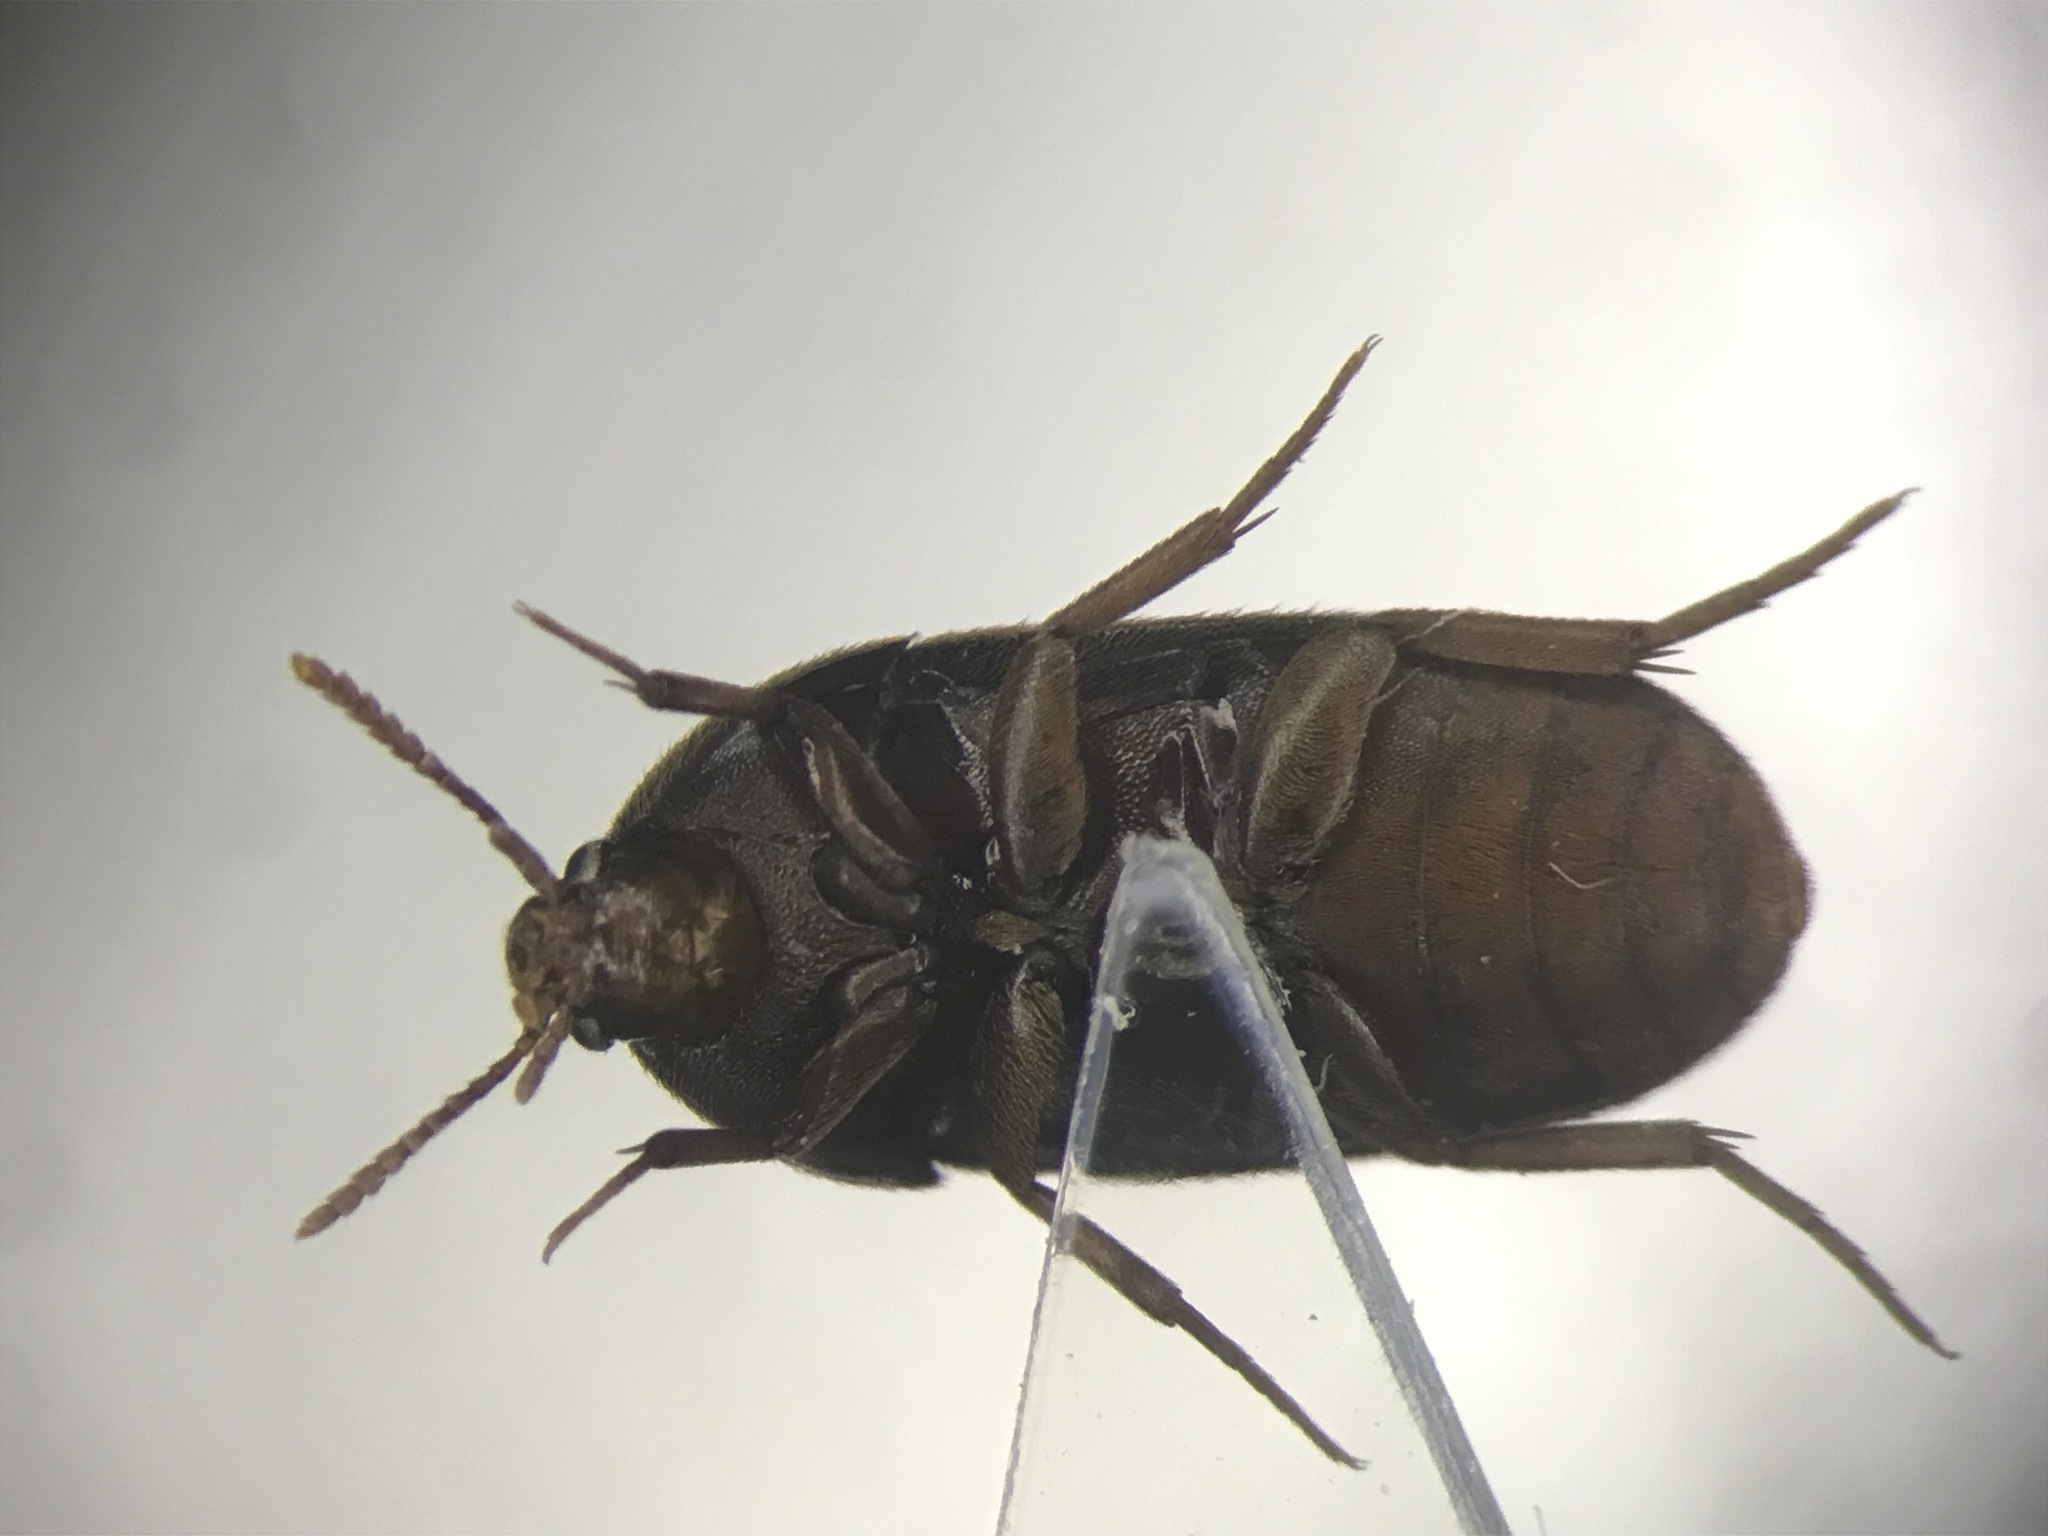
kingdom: Animalia
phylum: Arthropoda
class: Insecta
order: Coleoptera
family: Tetratomidae
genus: Eustrophus
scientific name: Eustrophus tomentosus
